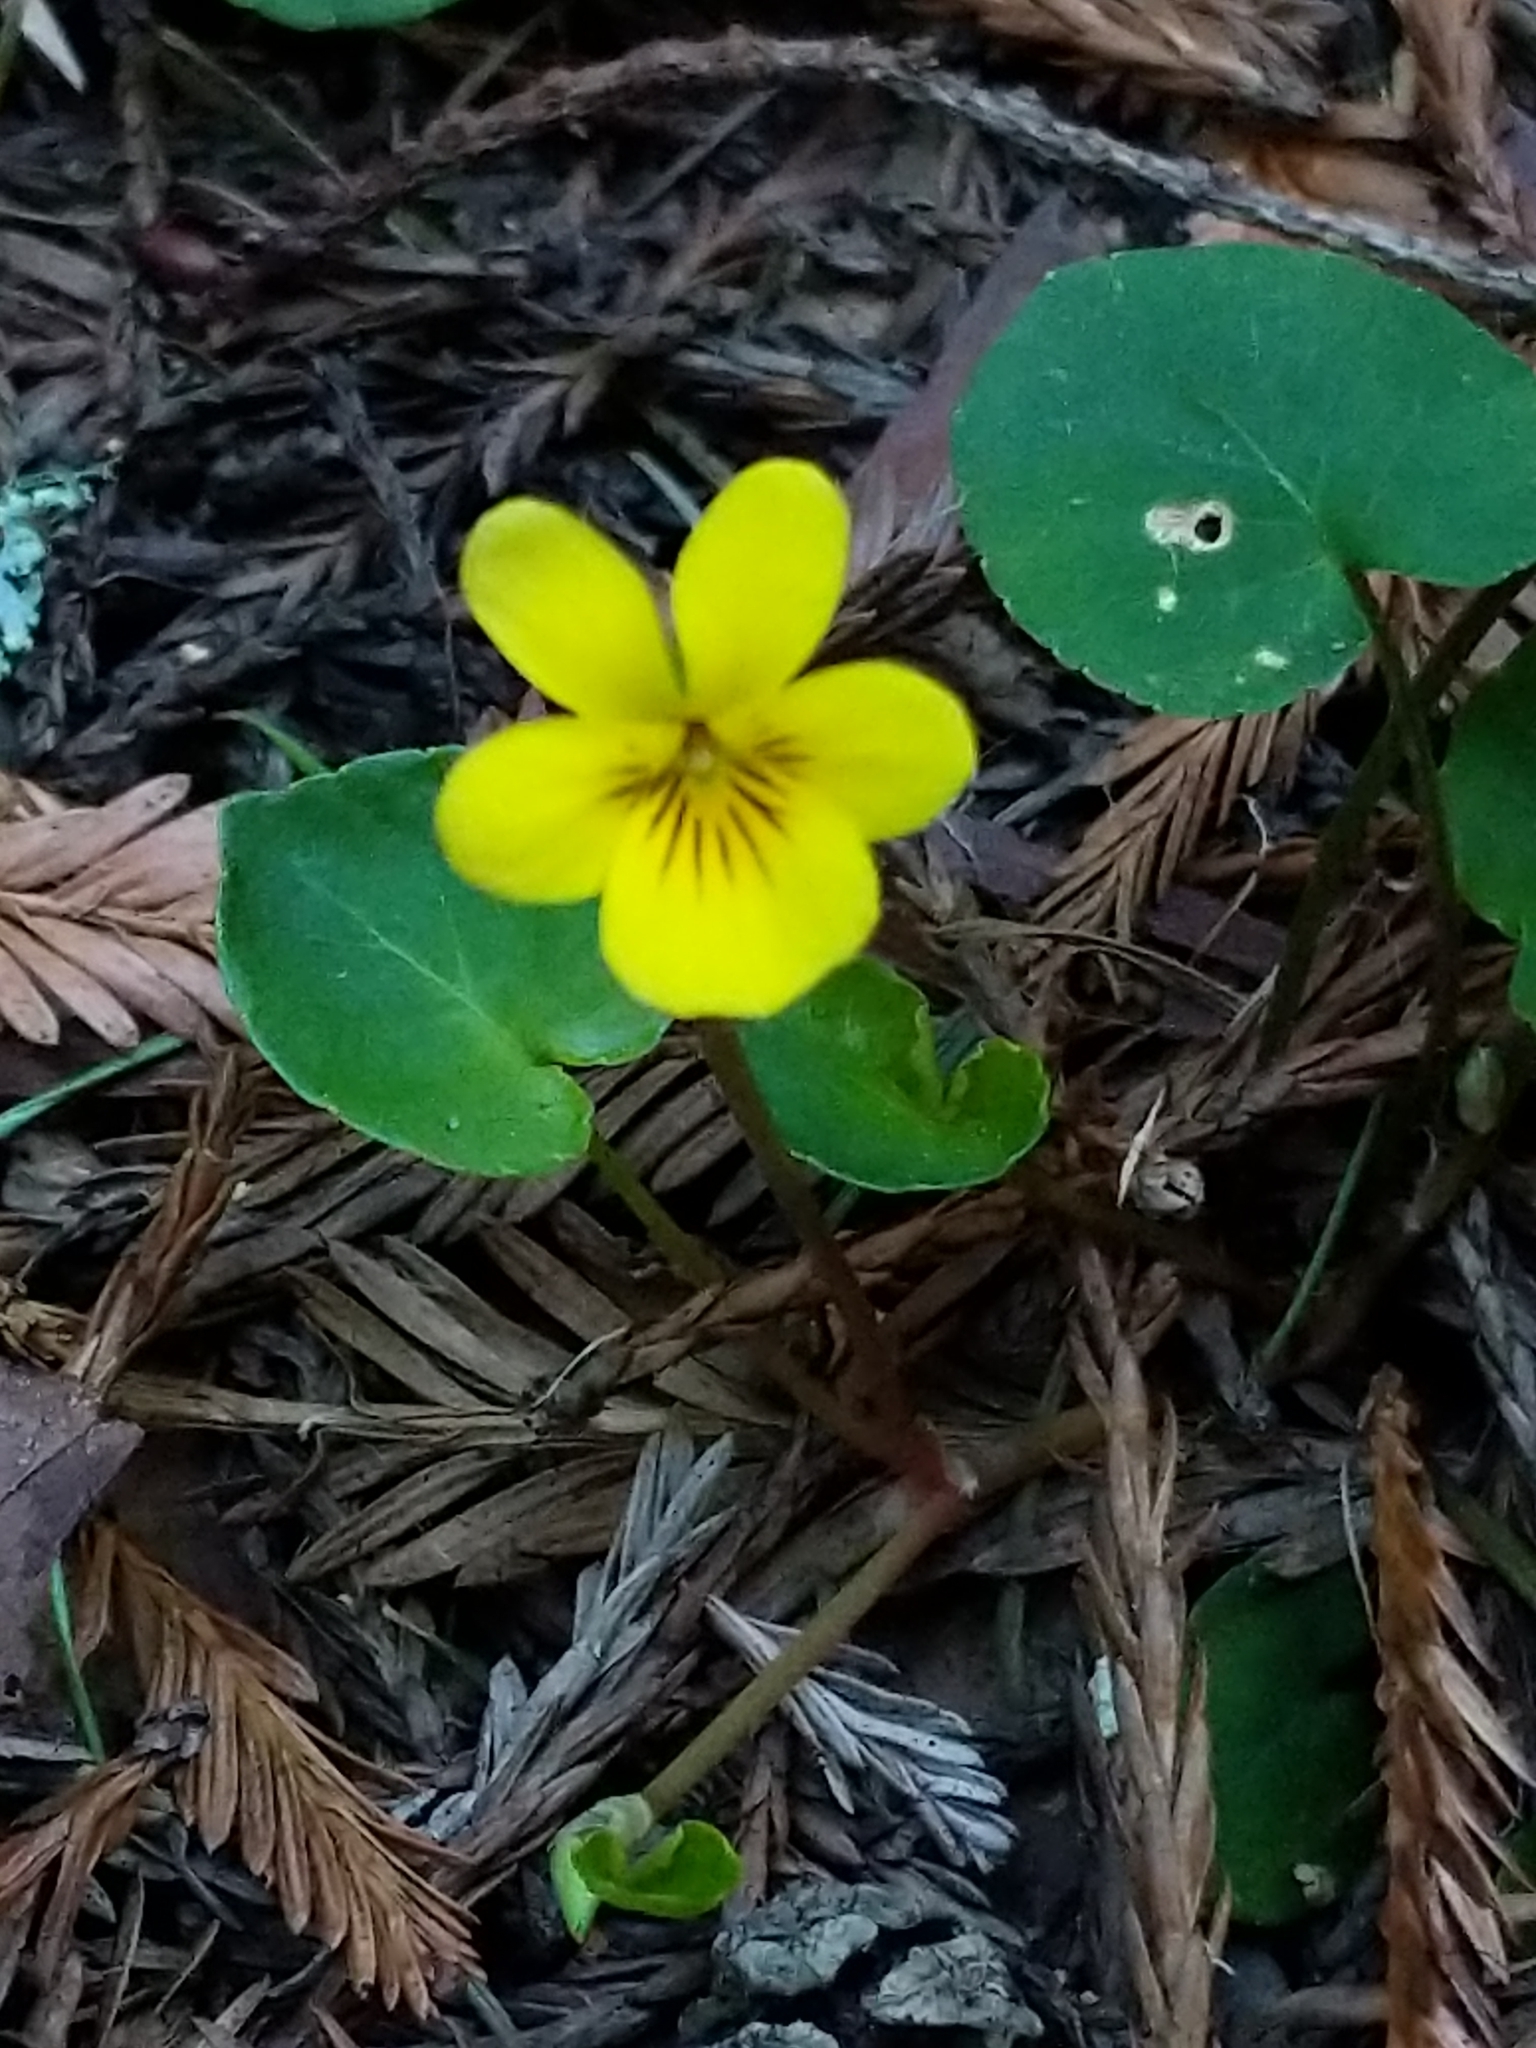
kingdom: Plantae
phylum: Tracheophyta
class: Magnoliopsida
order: Malpighiales
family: Violaceae
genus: Viola
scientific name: Viola sempervirens
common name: Evergreen violet
